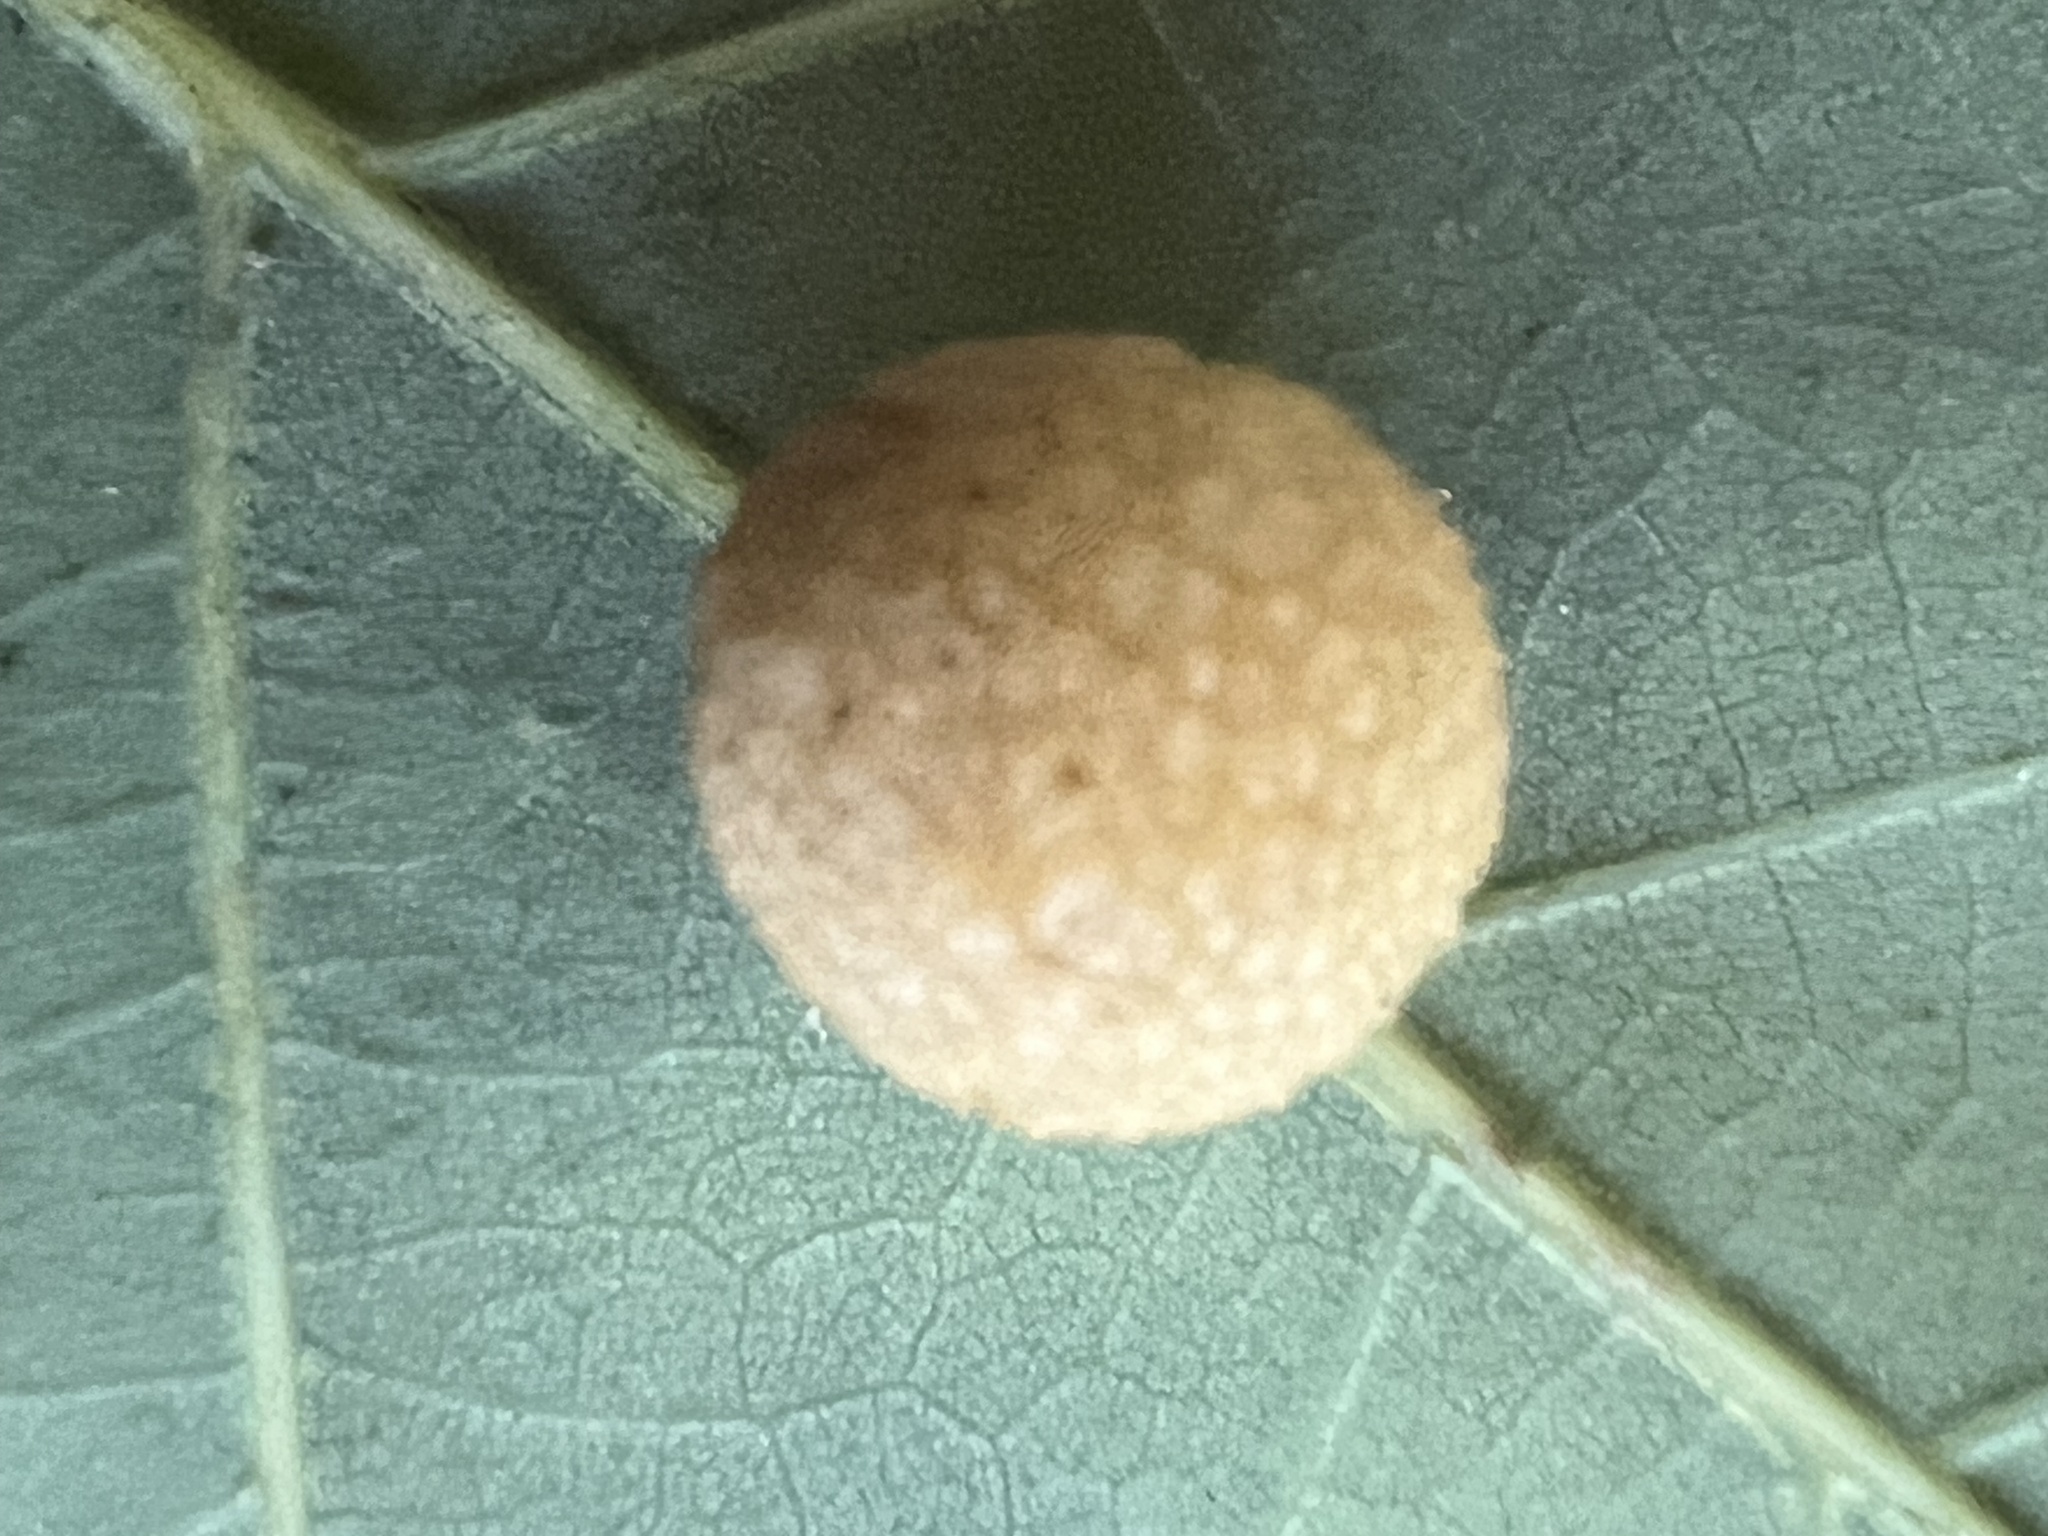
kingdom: Animalia
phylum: Arthropoda
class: Insecta
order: Hymenoptera
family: Cynipidae
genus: Acraspis
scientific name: Acraspis
